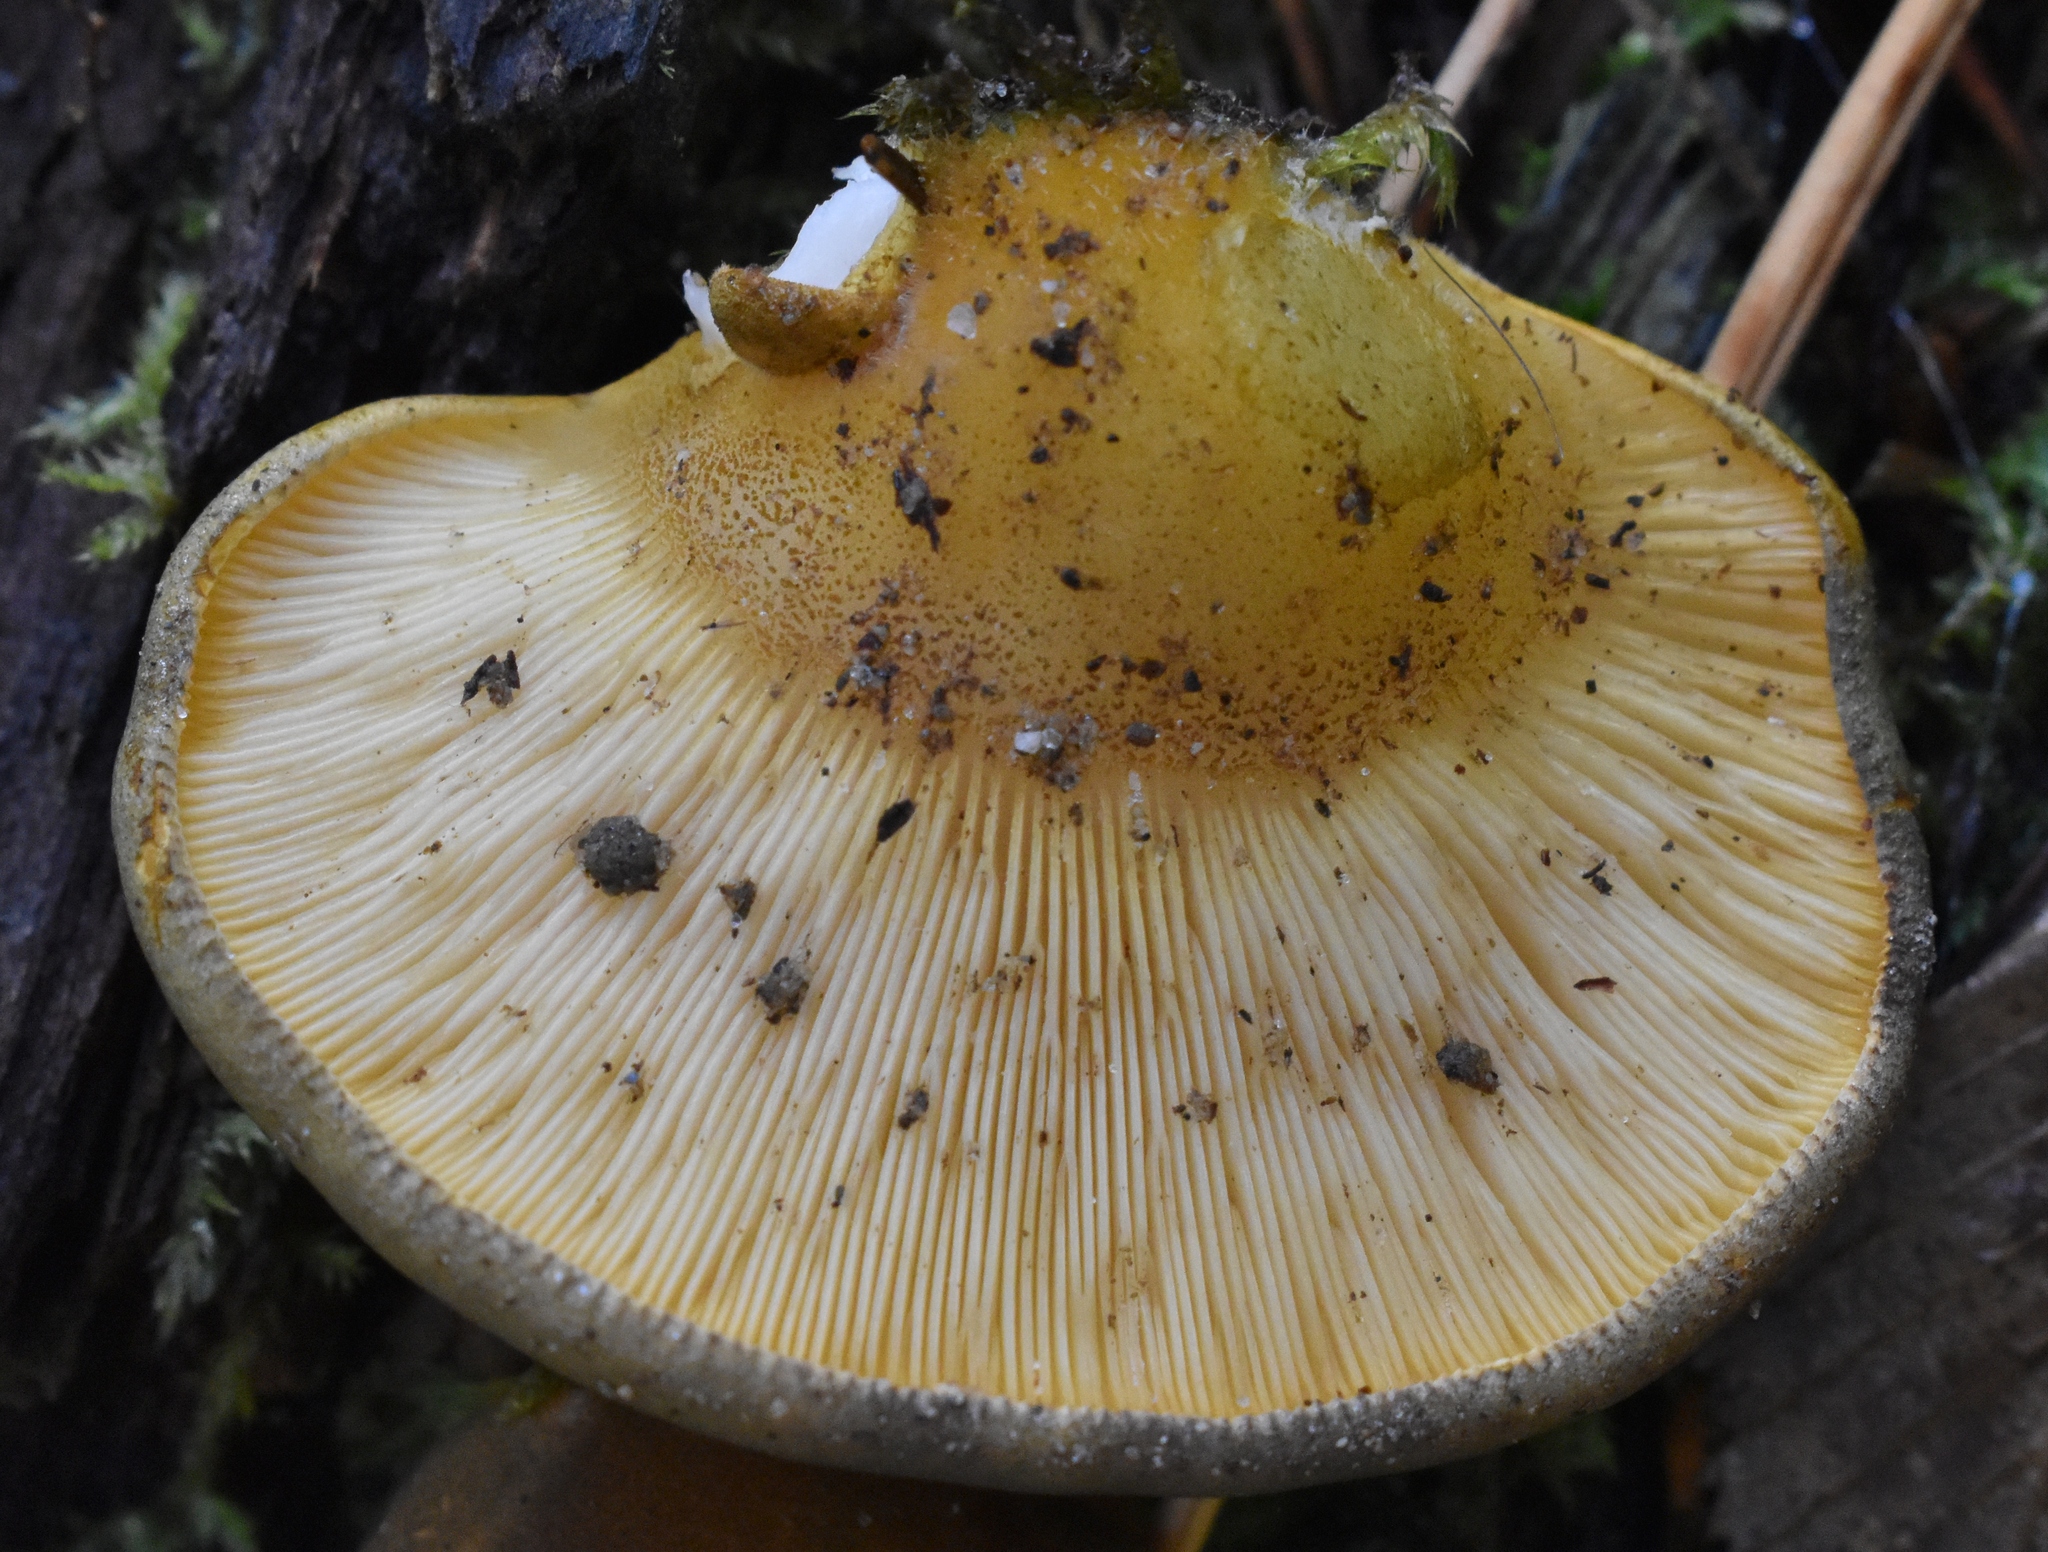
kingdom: Fungi
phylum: Basidiomycota
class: Agaricomycetes
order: Agaricales
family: Sarcomyxaceae
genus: Sarcomyxa
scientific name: Sarcomyxa serotina
